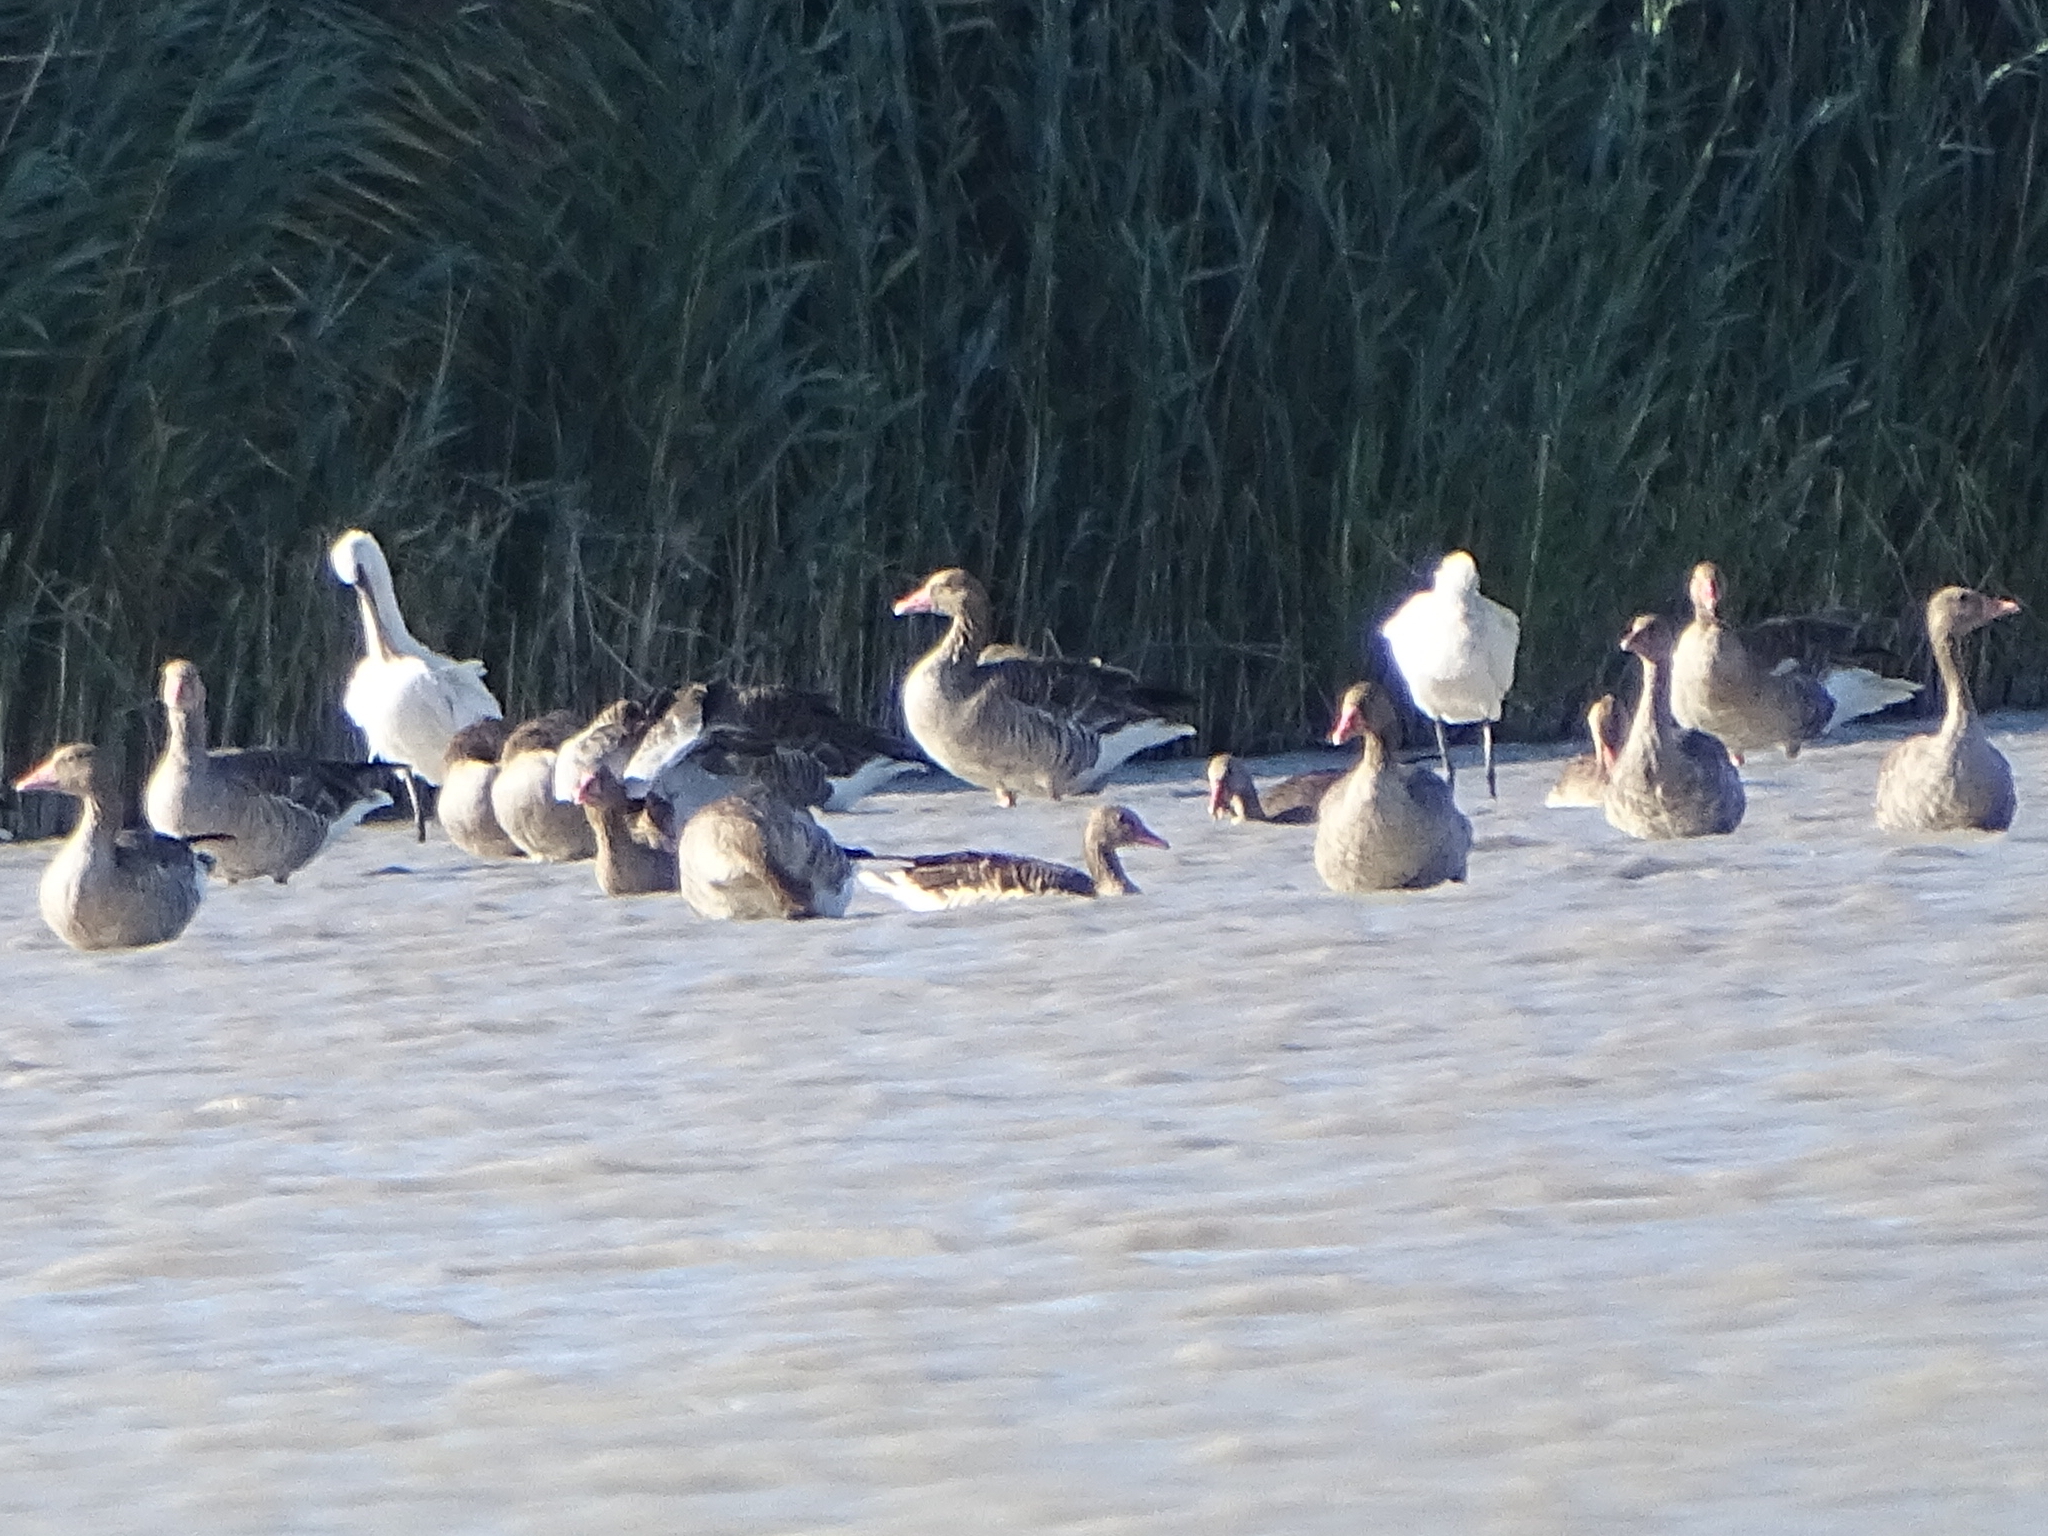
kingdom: Animalia
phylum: Chordata
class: Aves
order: Anseriformes
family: Anatidae
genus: Anser
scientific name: Anser anser
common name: Greylag goose
